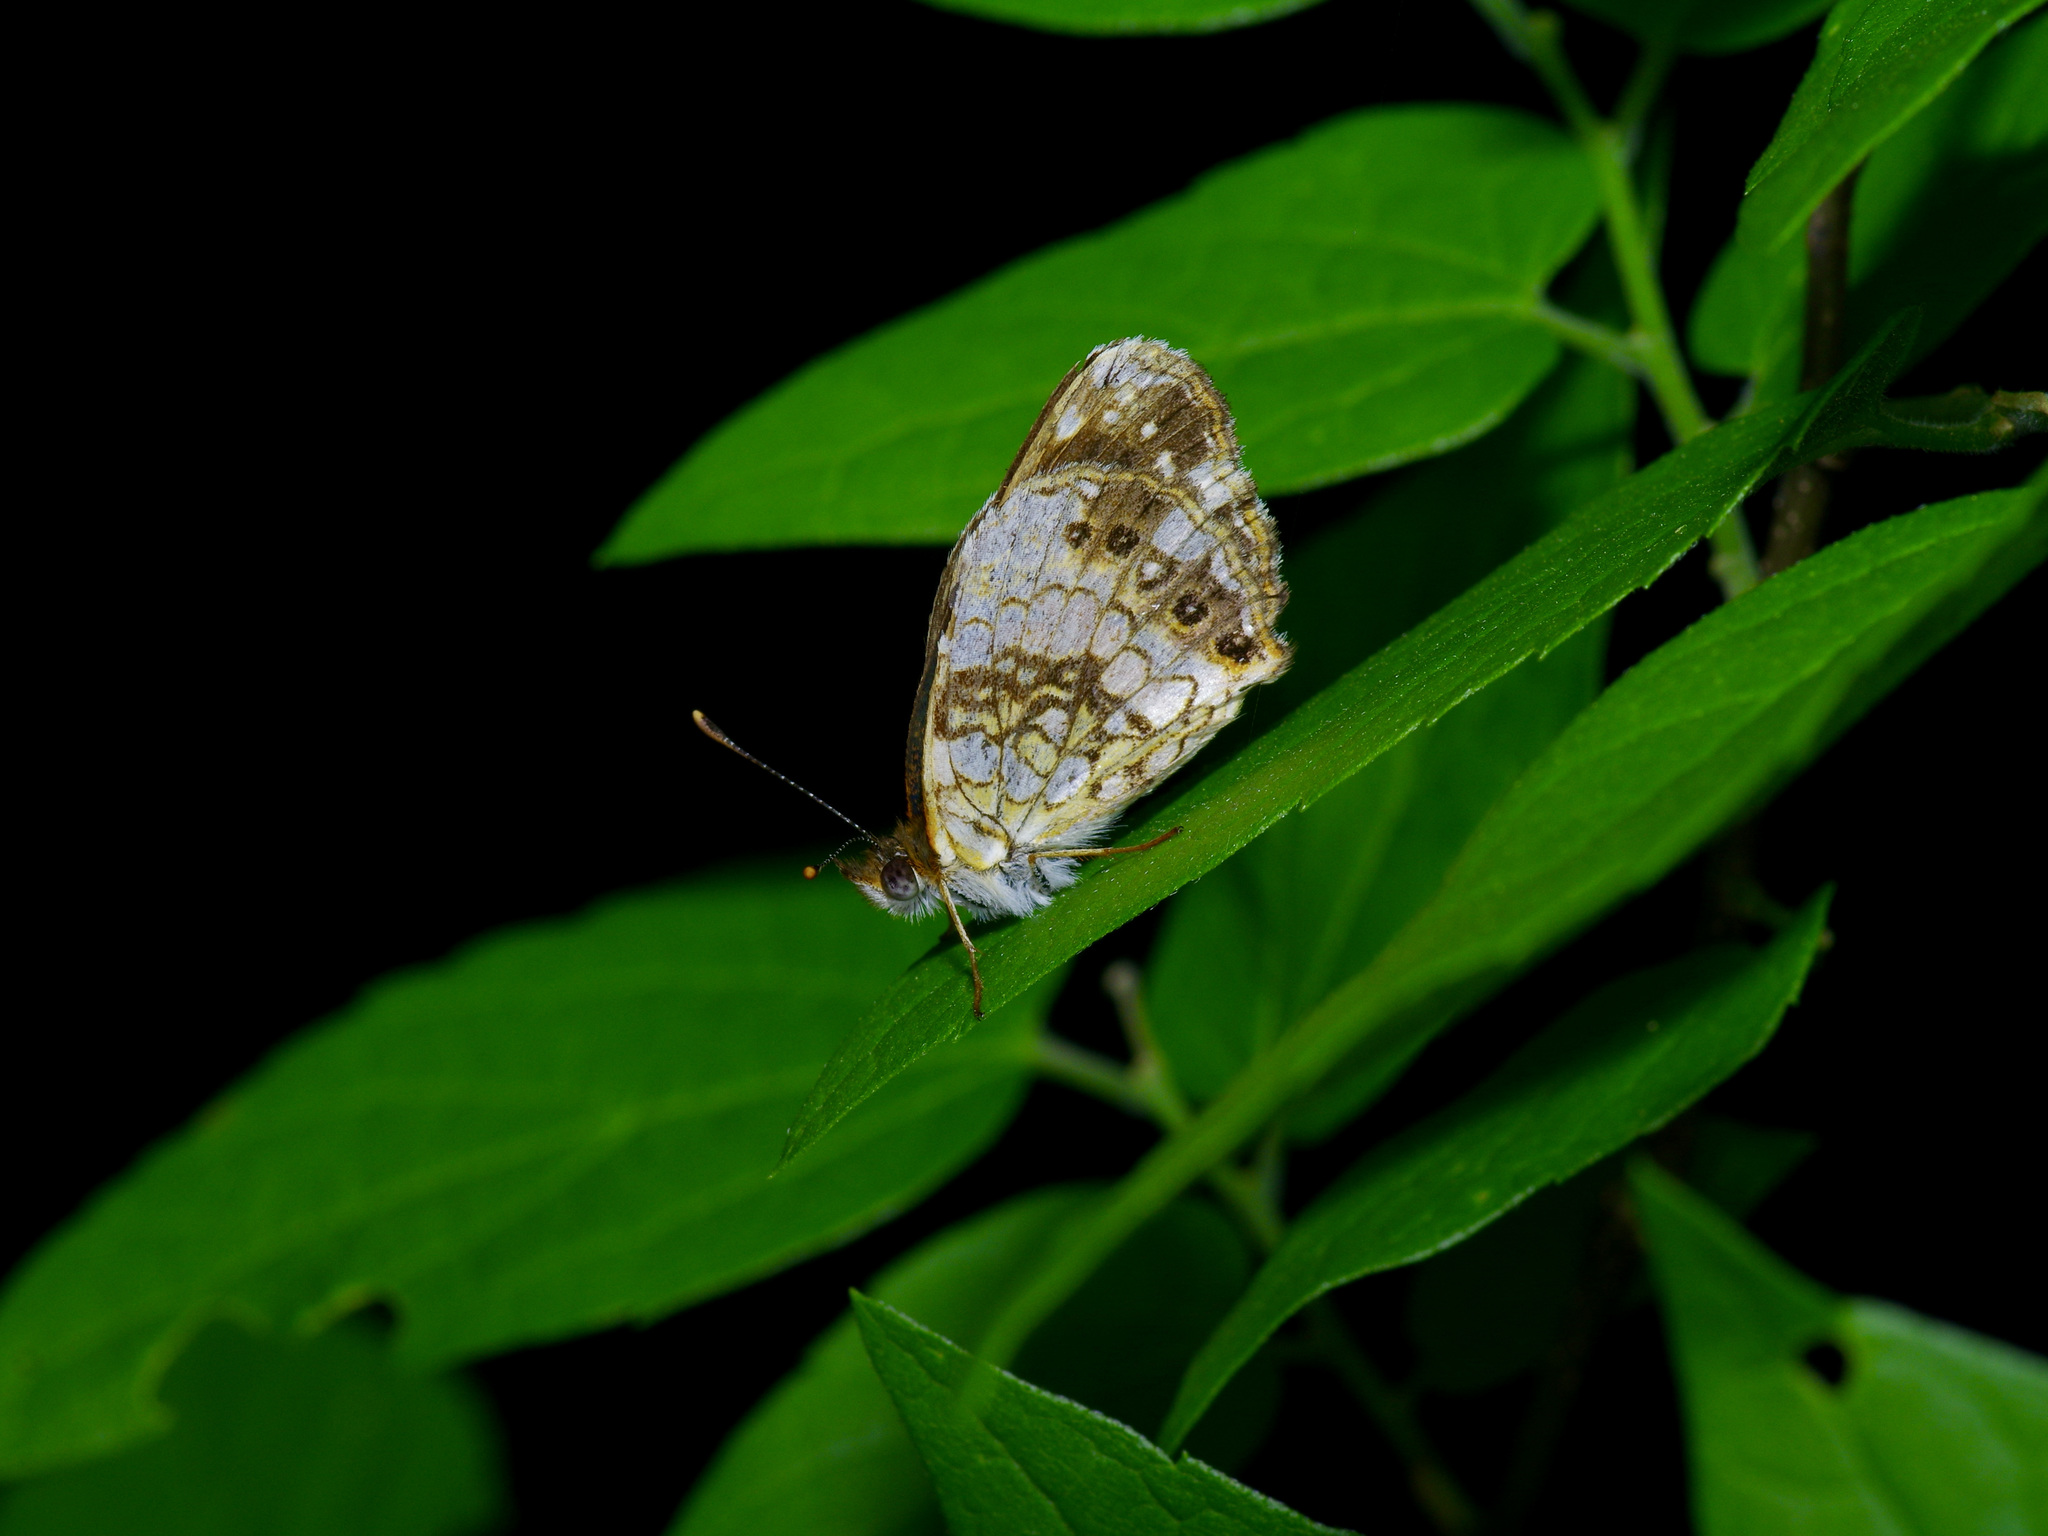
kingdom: Animalia
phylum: Arthropoda
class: Insecta
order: Lepidoptera
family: Nymphalidae
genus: Chlosyne
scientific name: Chlosyne nycteis
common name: Silvery checkerspot
